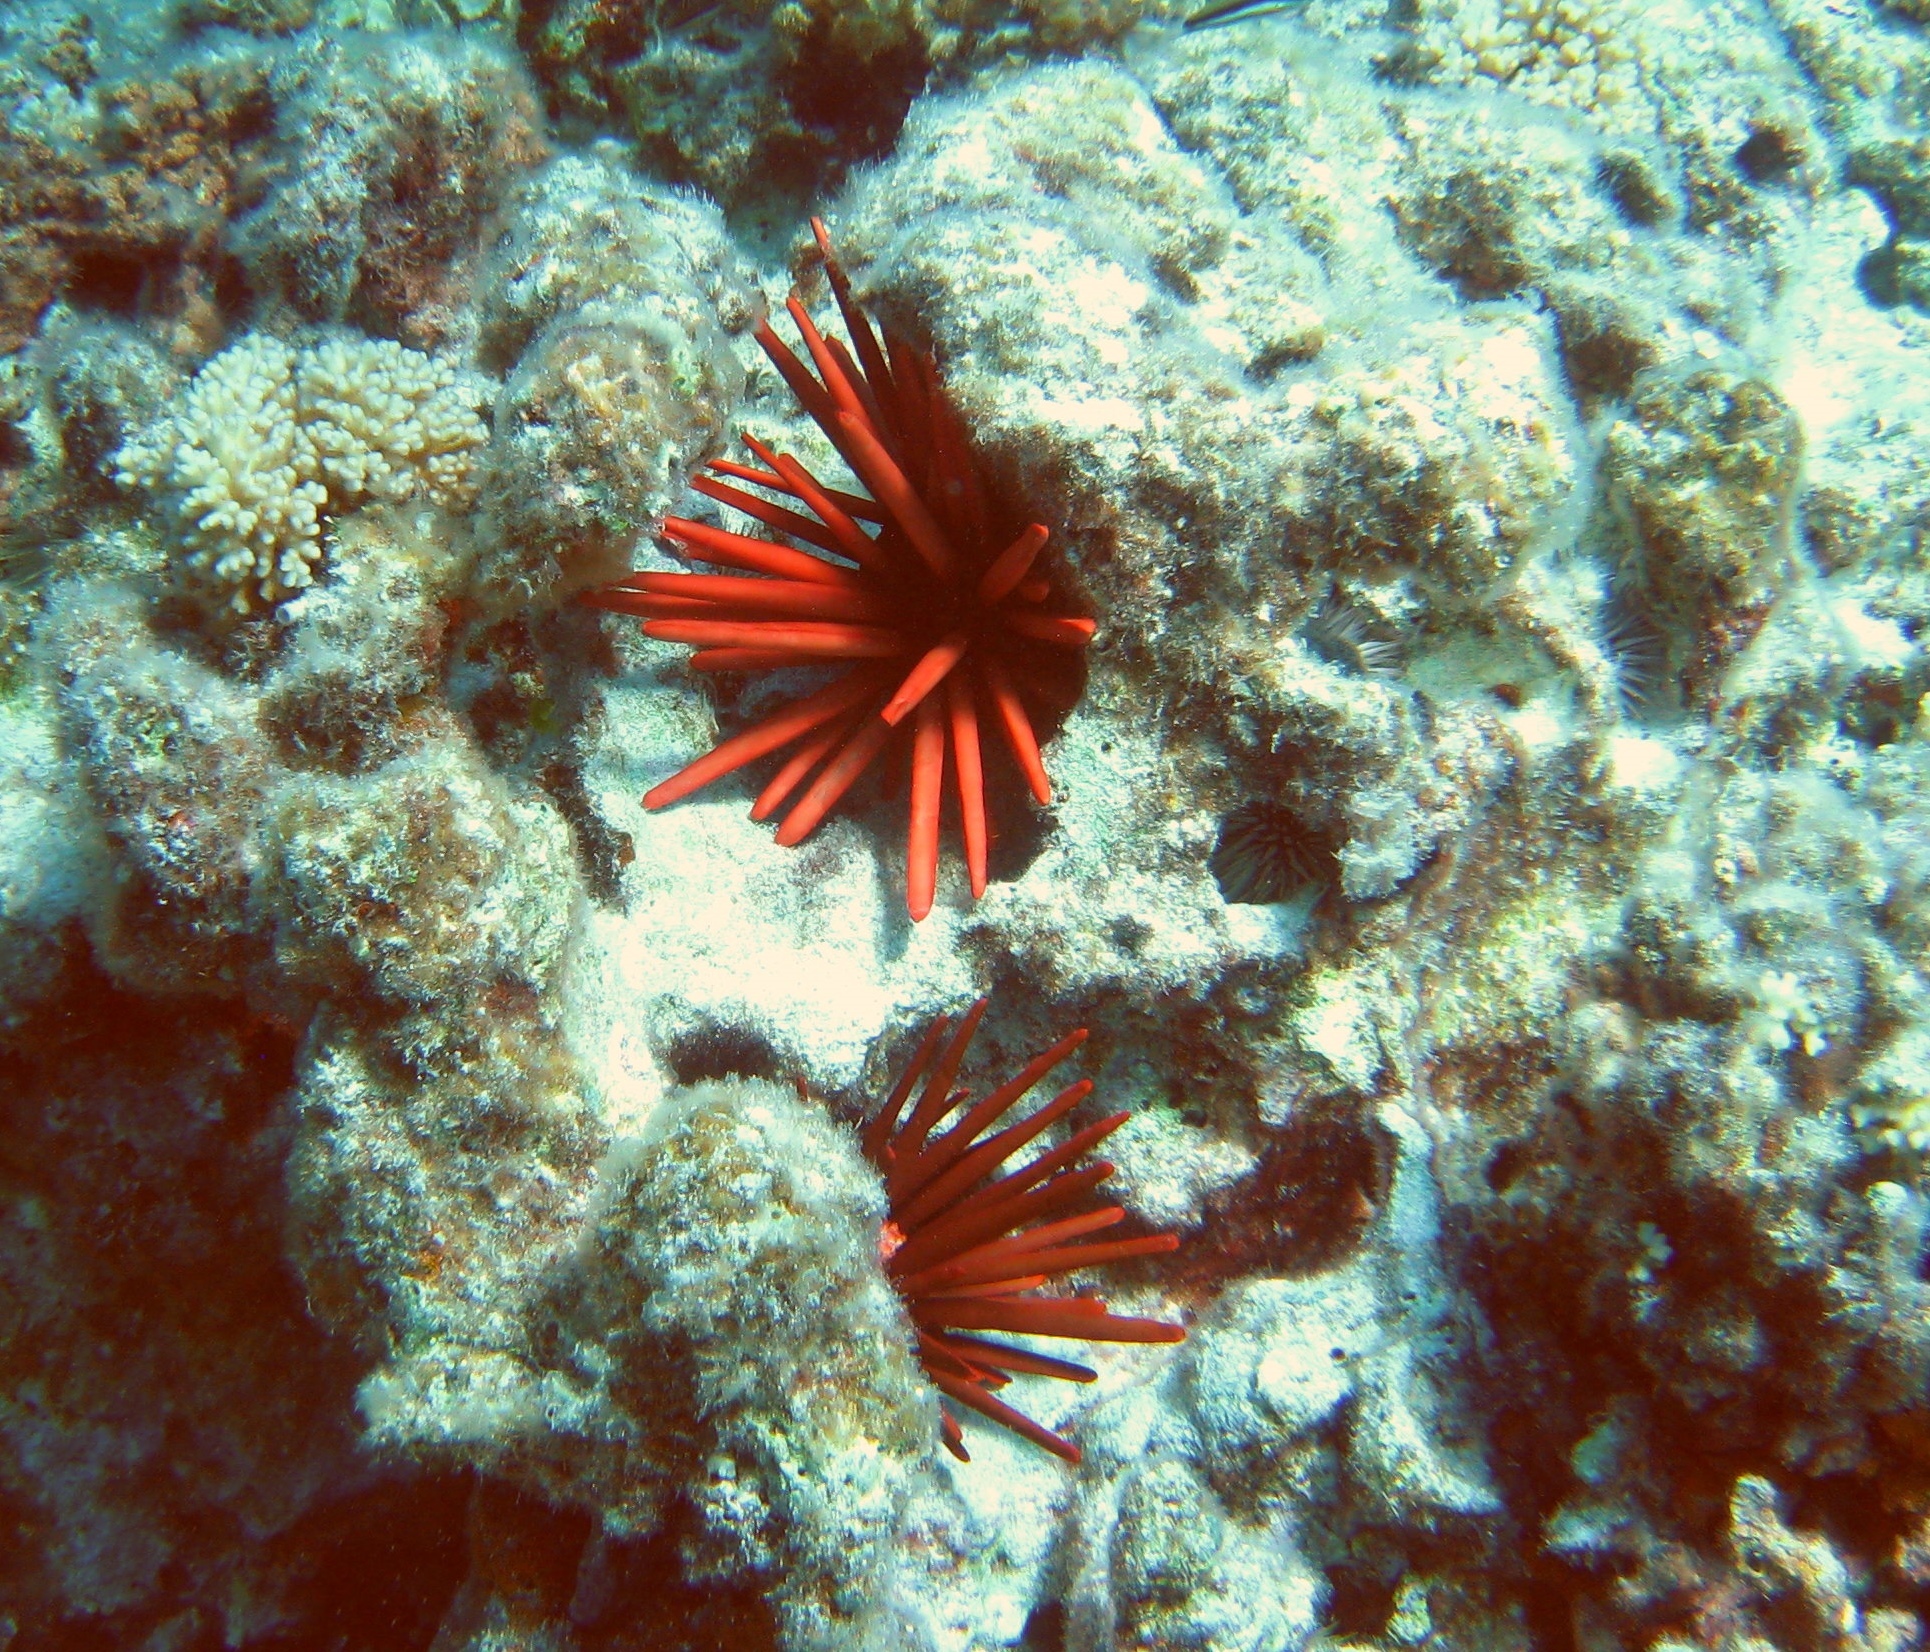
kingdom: Animalia
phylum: Echinodermata
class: Echinoidea
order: Camarodonta
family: Echinometridae
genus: Heterocentrotus
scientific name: Heterocentrotus mamillatus
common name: Slate pencil urchin
